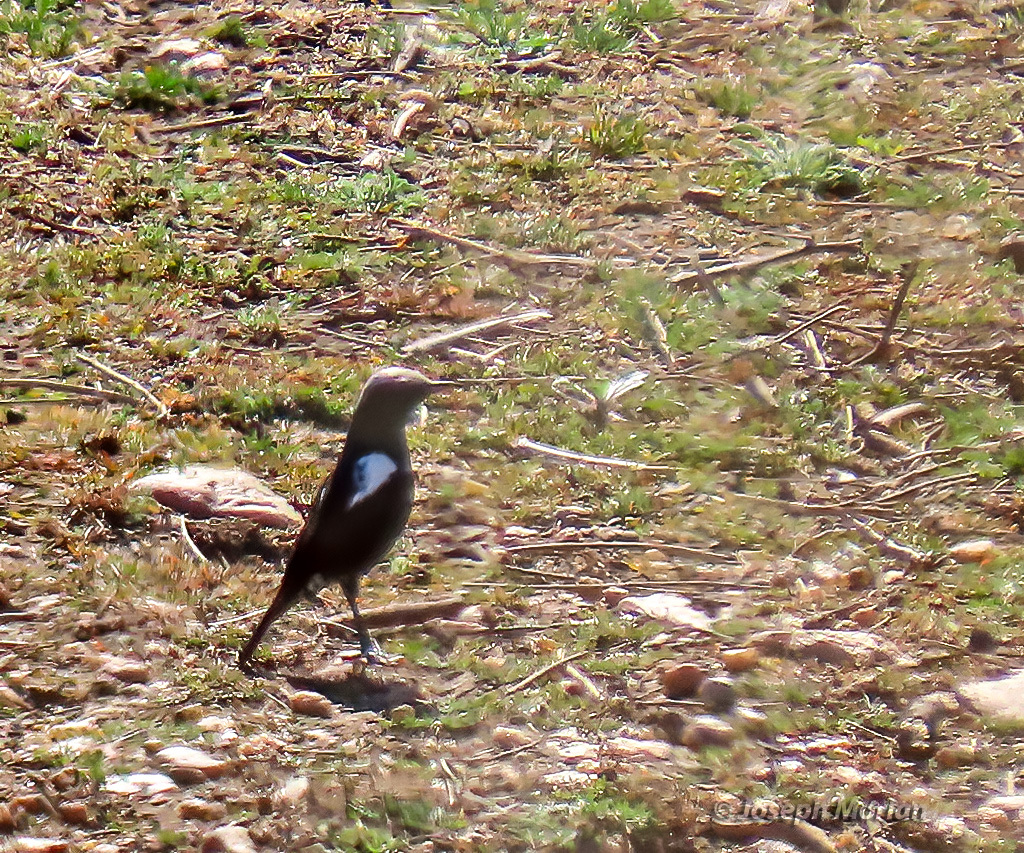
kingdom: Animalia
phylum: Chordata
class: Aves
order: Passeriformes
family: Muscicapidae
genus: Oenanthe
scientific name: Oenanthe monticola
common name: Mountain wheatear
